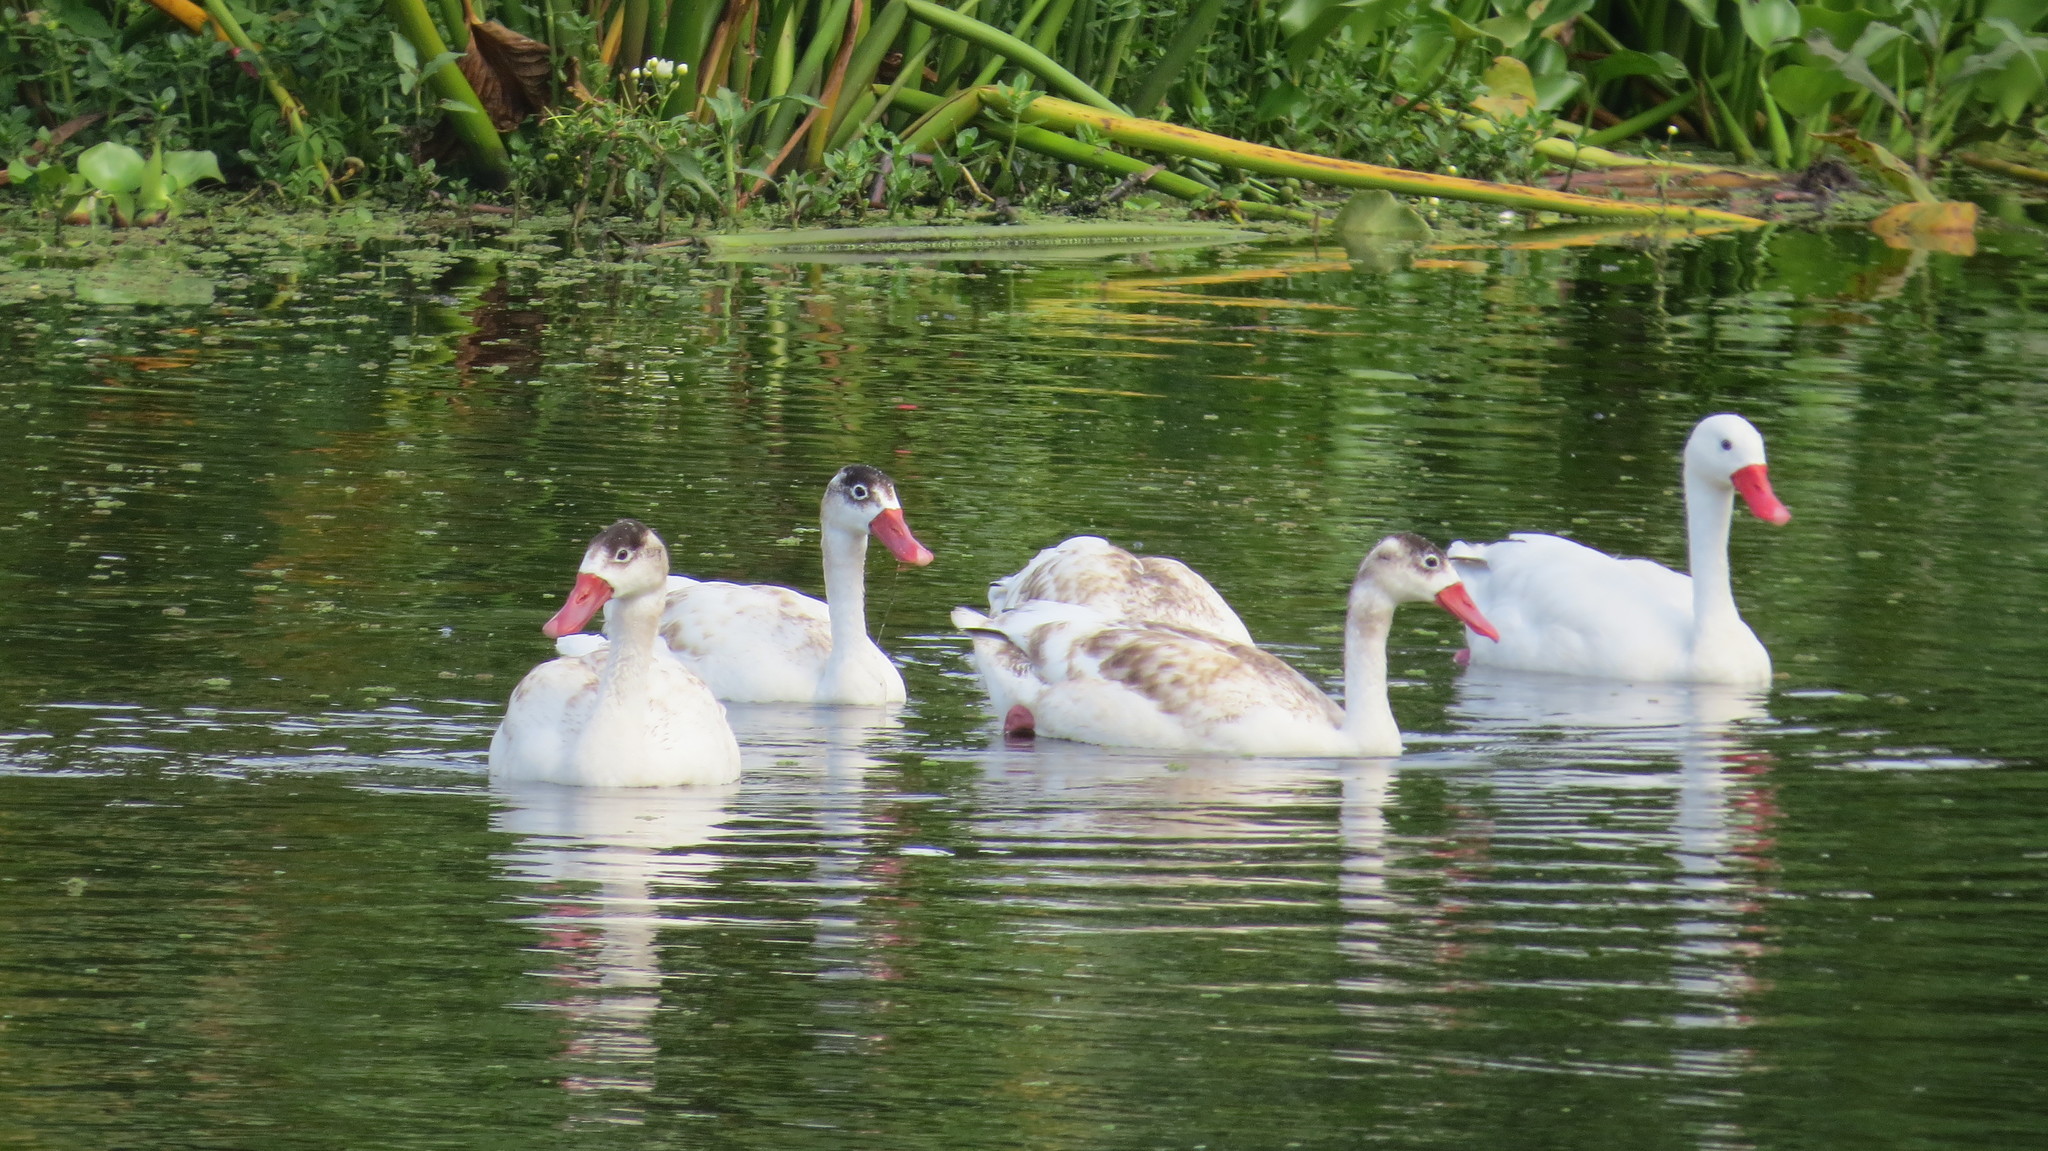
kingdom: Animalia
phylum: Chordata
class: Aves
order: Anseriformes
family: Anatidae
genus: Coscoroba
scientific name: Coscoroba coscoroba
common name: Coscoroba swan
